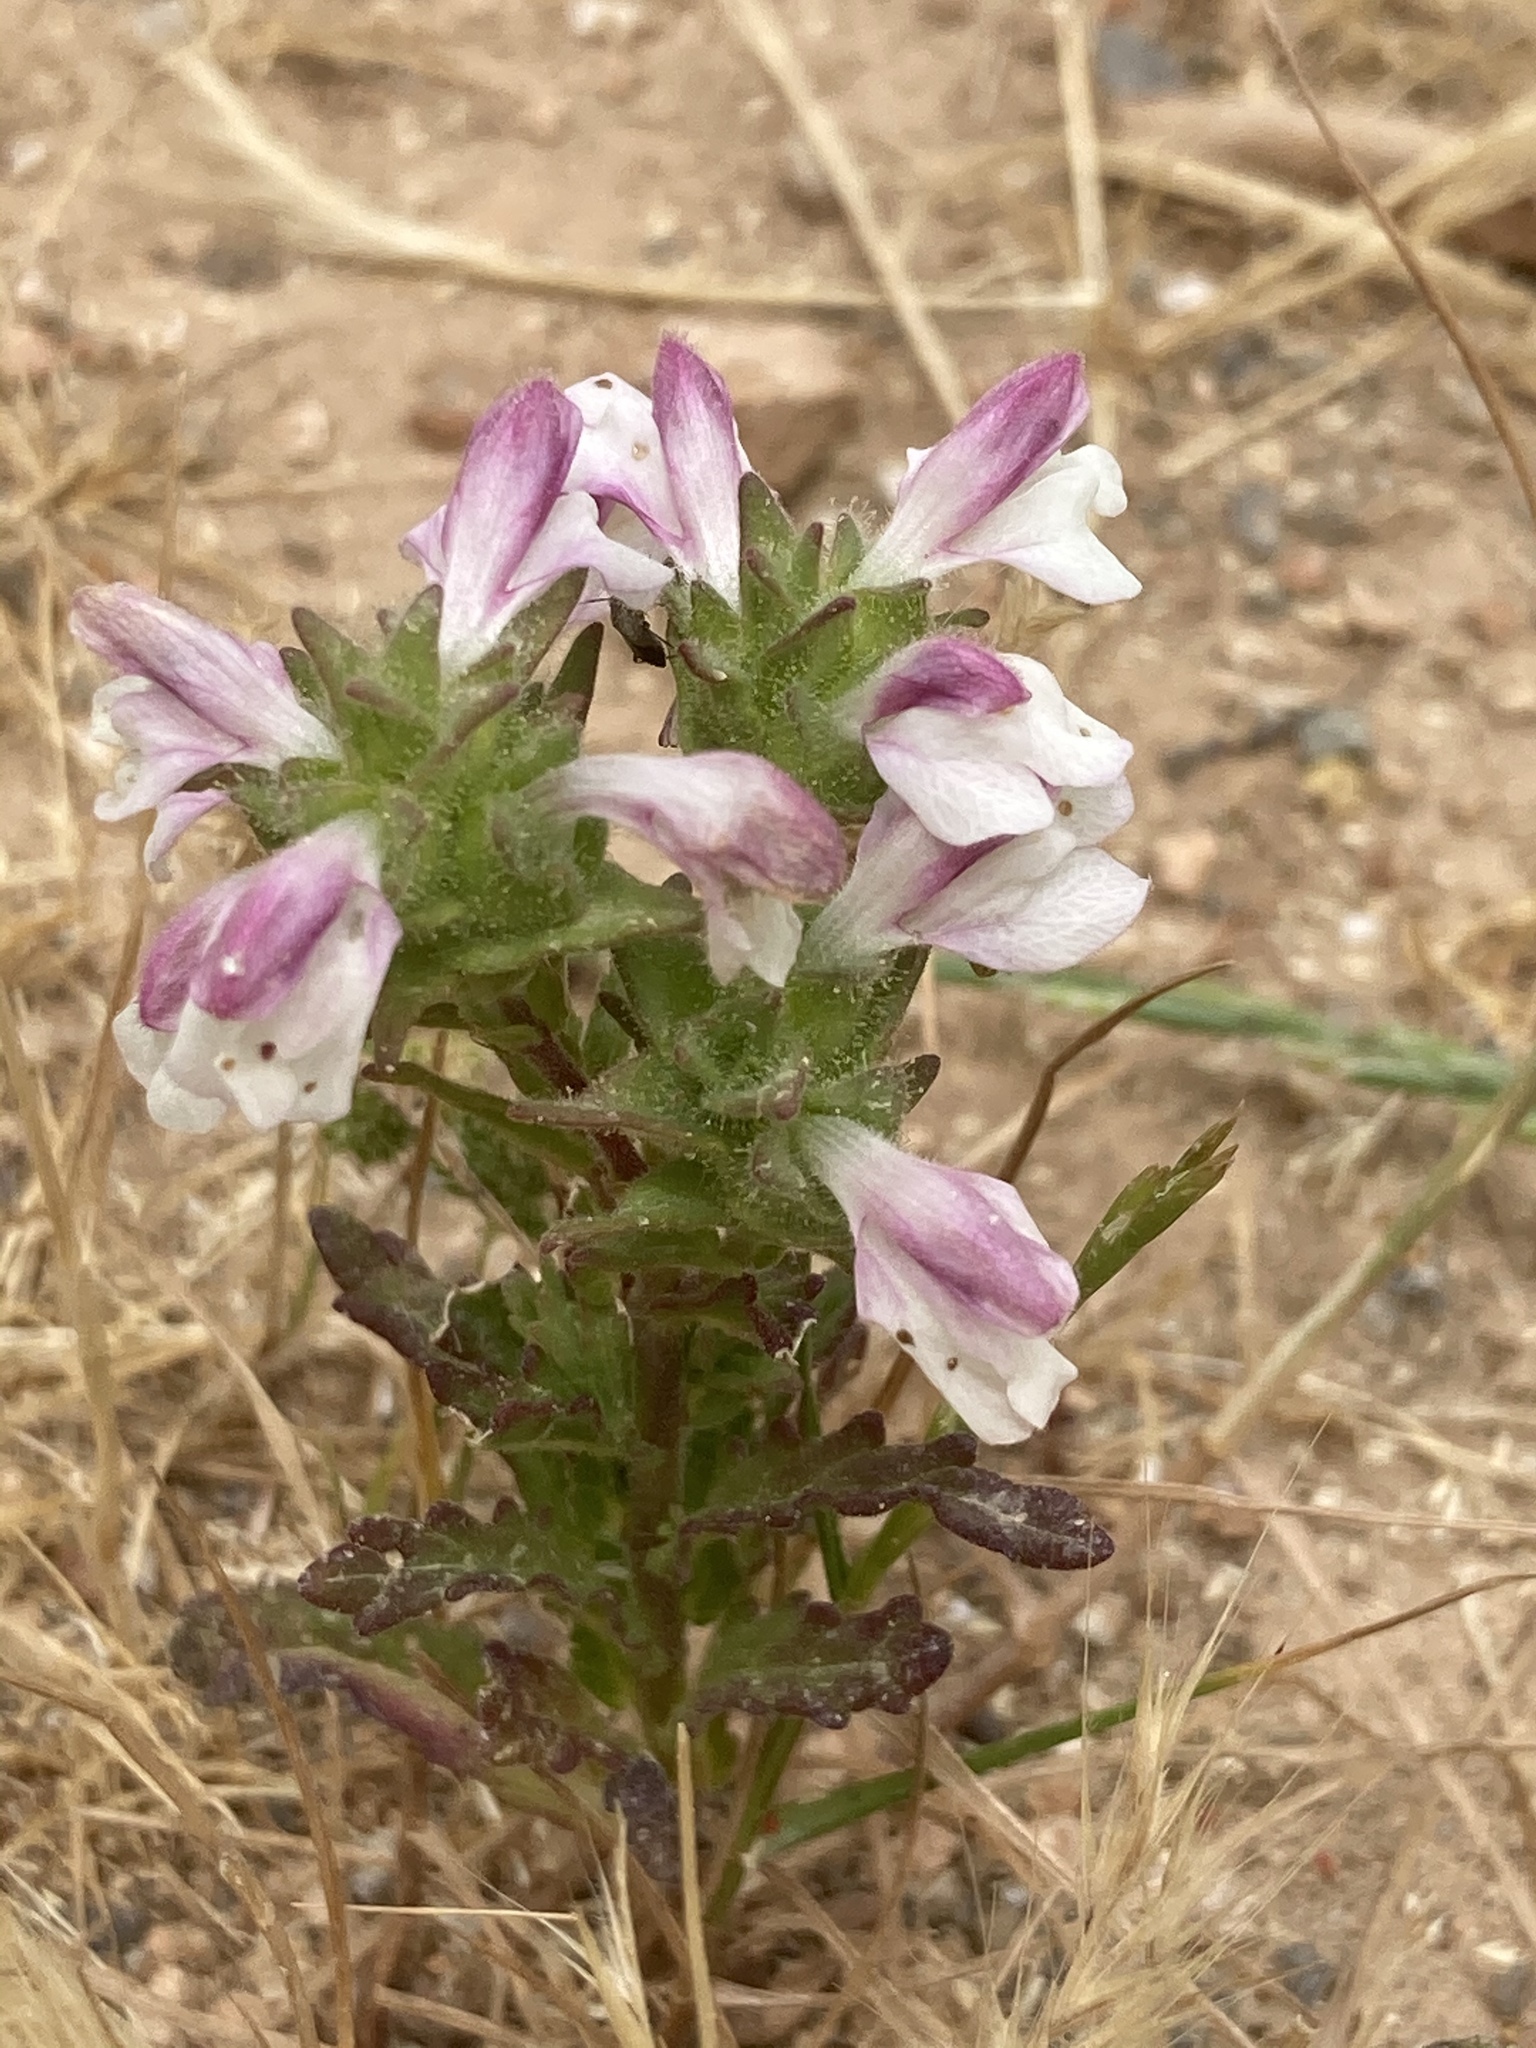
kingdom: Plantae
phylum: Tracheophyta
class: Magnoliopsida
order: Lamiales
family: Orobanchaceae
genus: Bellardia
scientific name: Bellardia trixago
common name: Mediterranean lineseed
